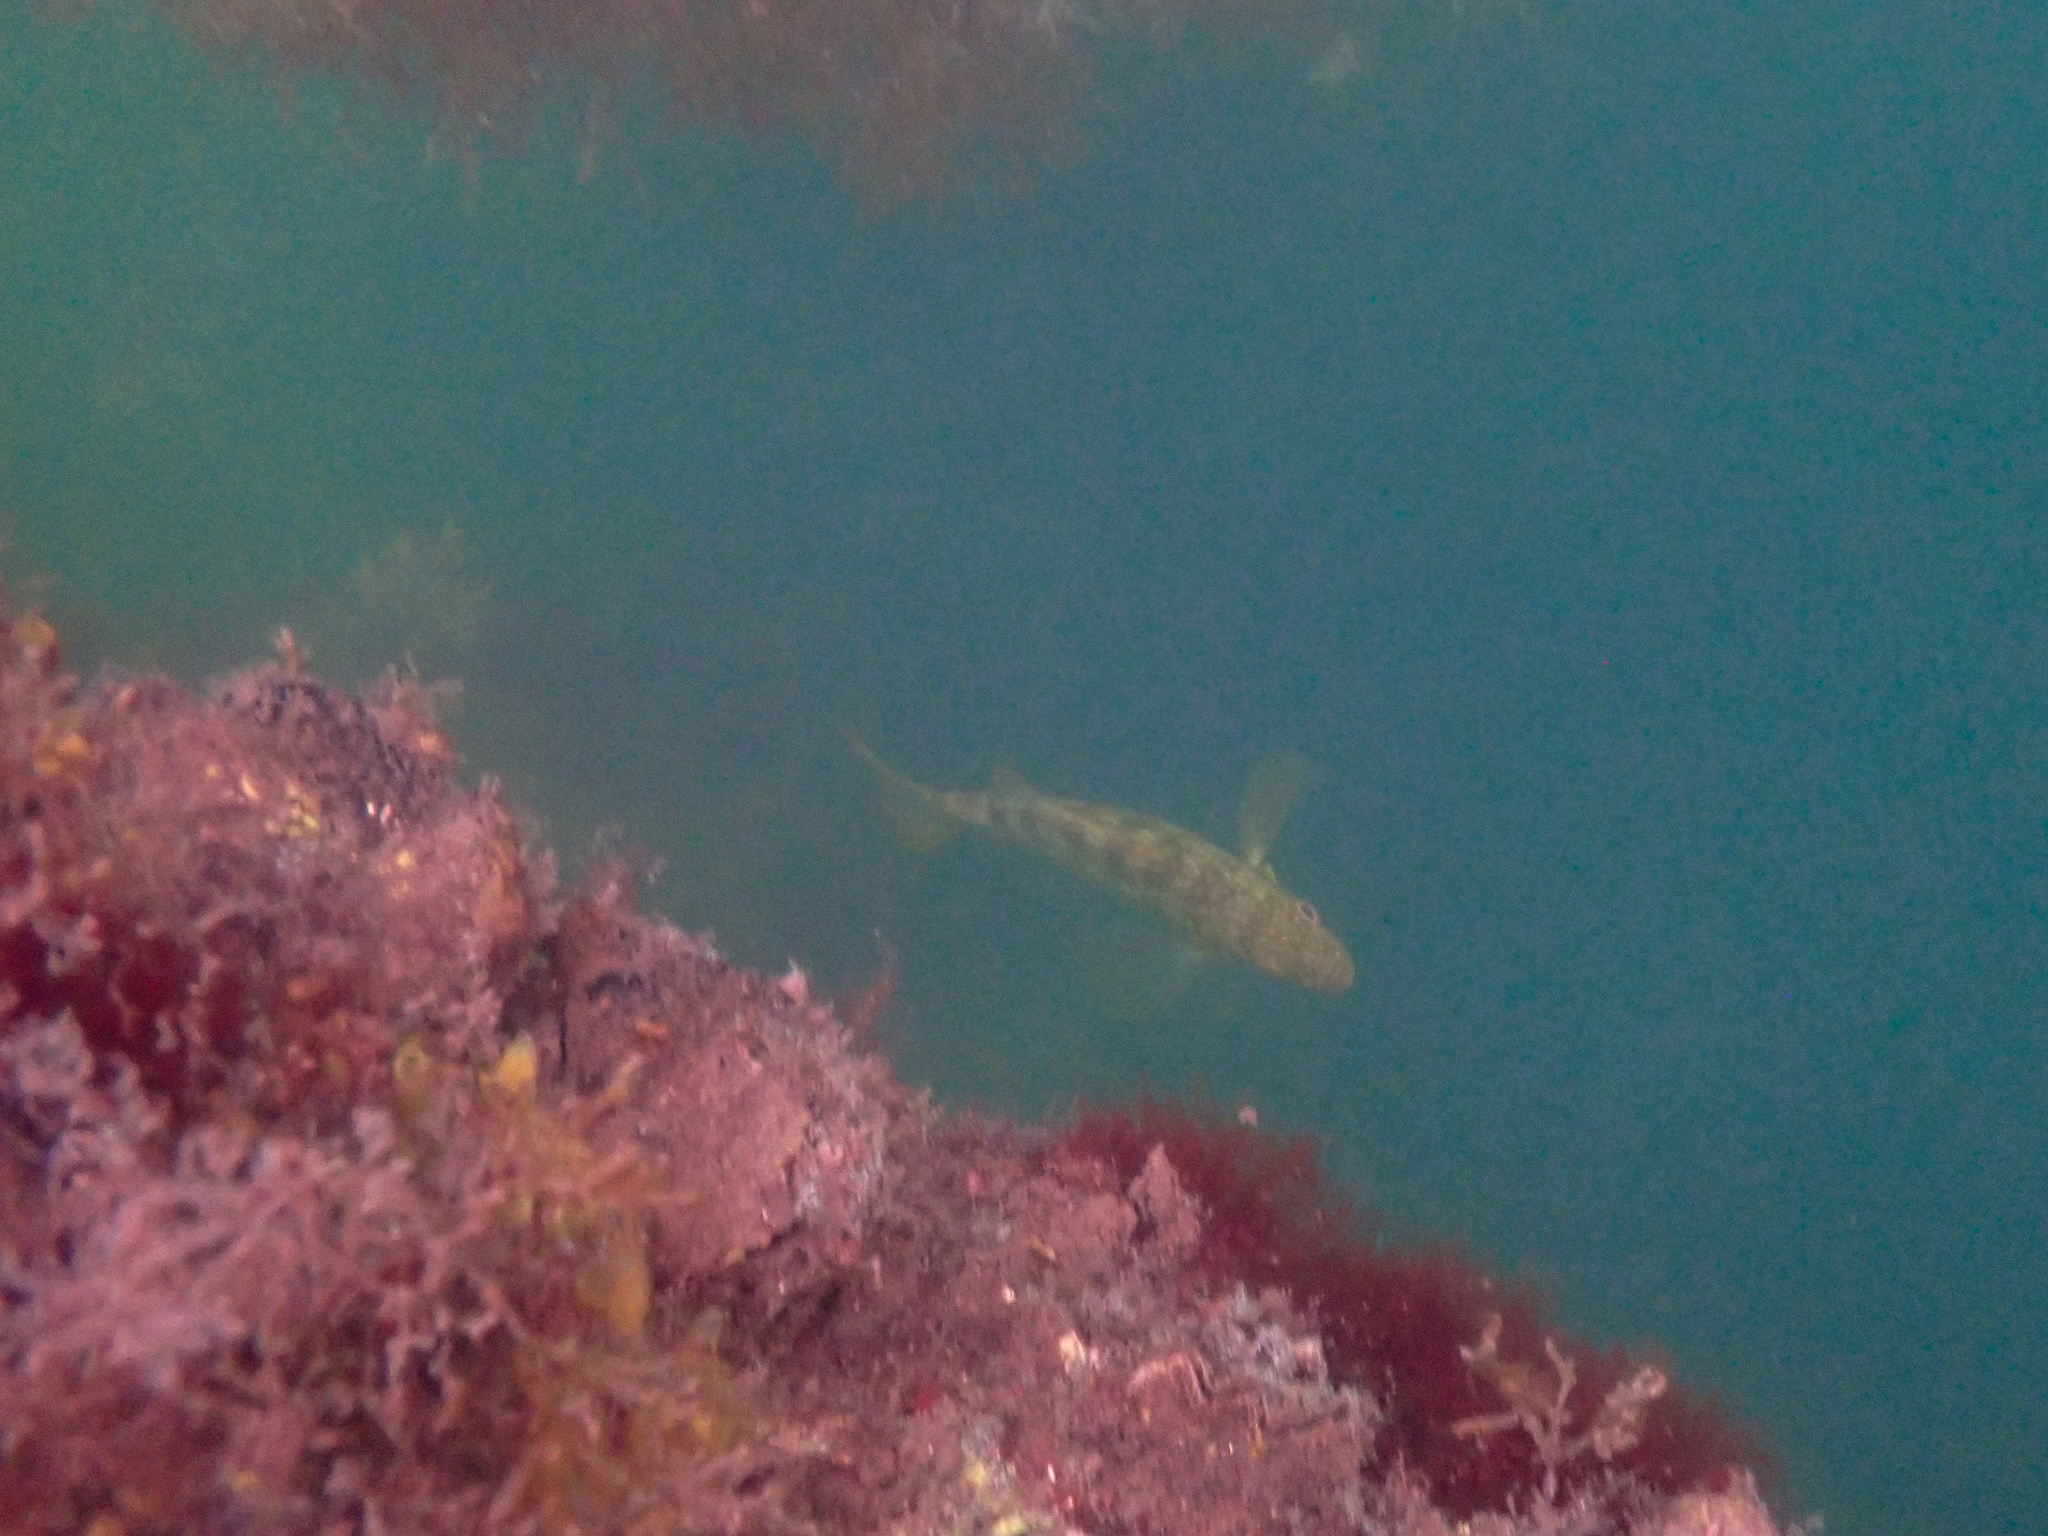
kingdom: Animalia
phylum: Chordata
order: Perciformes
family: Serranidae
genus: Paralabrax
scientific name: Paralabrax clathratus
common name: Kelp bass
